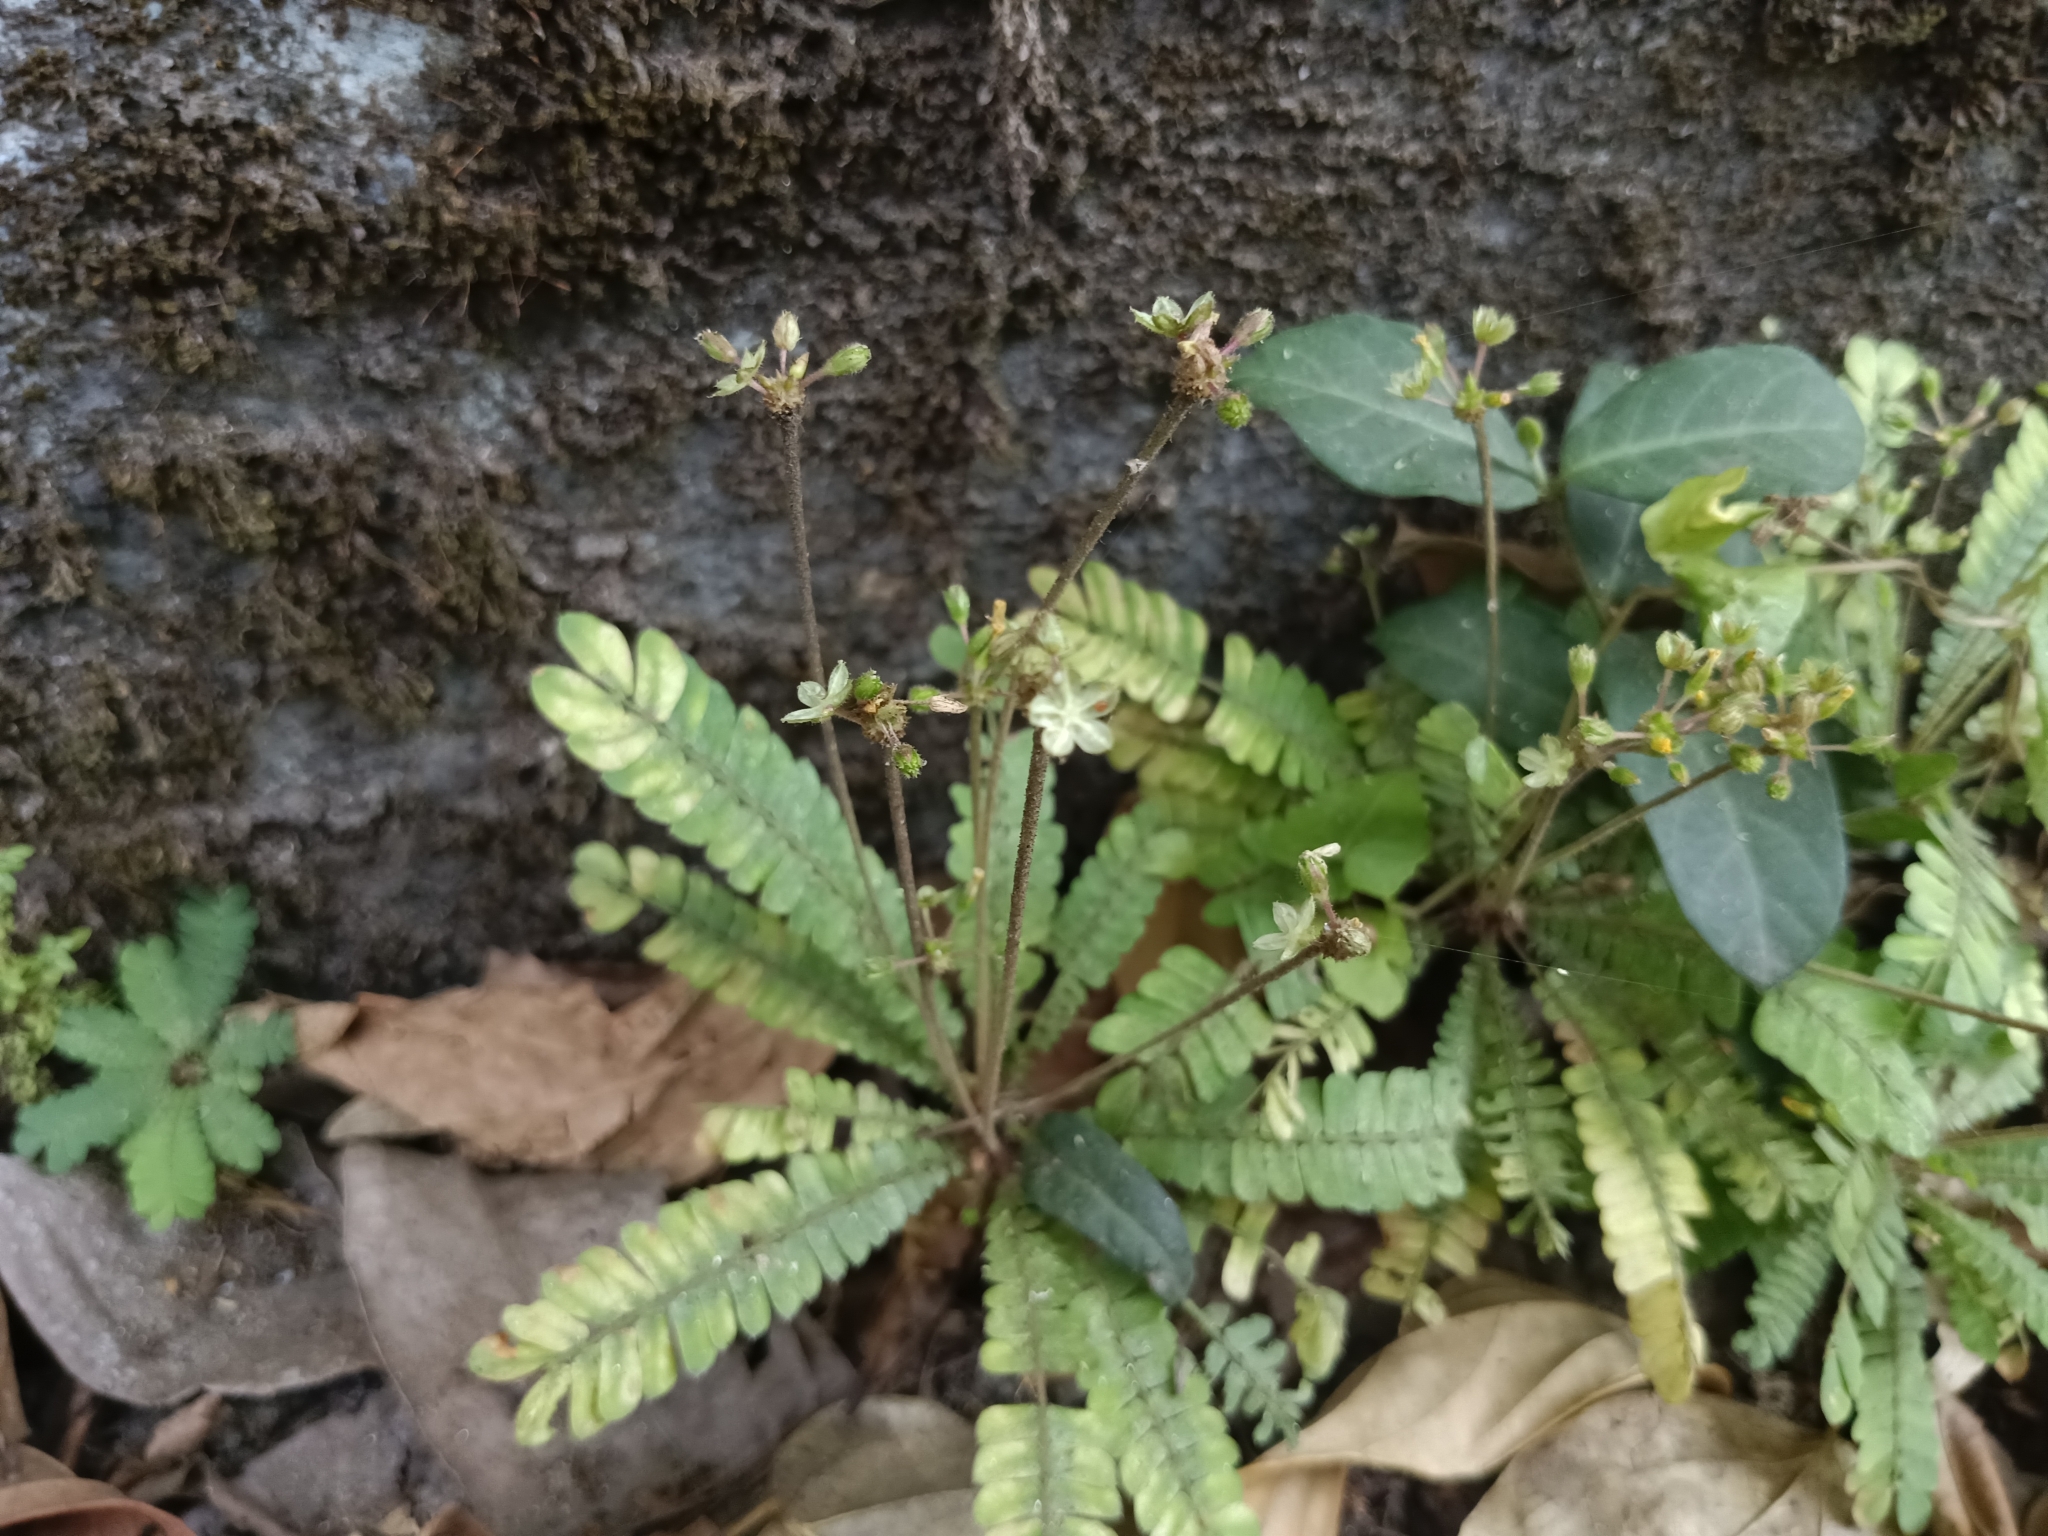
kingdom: Plantae
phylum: Tracheophyta
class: Magnoliopsida
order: Oxalidales
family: Oxalidaceae
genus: Biophytum
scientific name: Biophytum sensitivum
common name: Lifeplant
